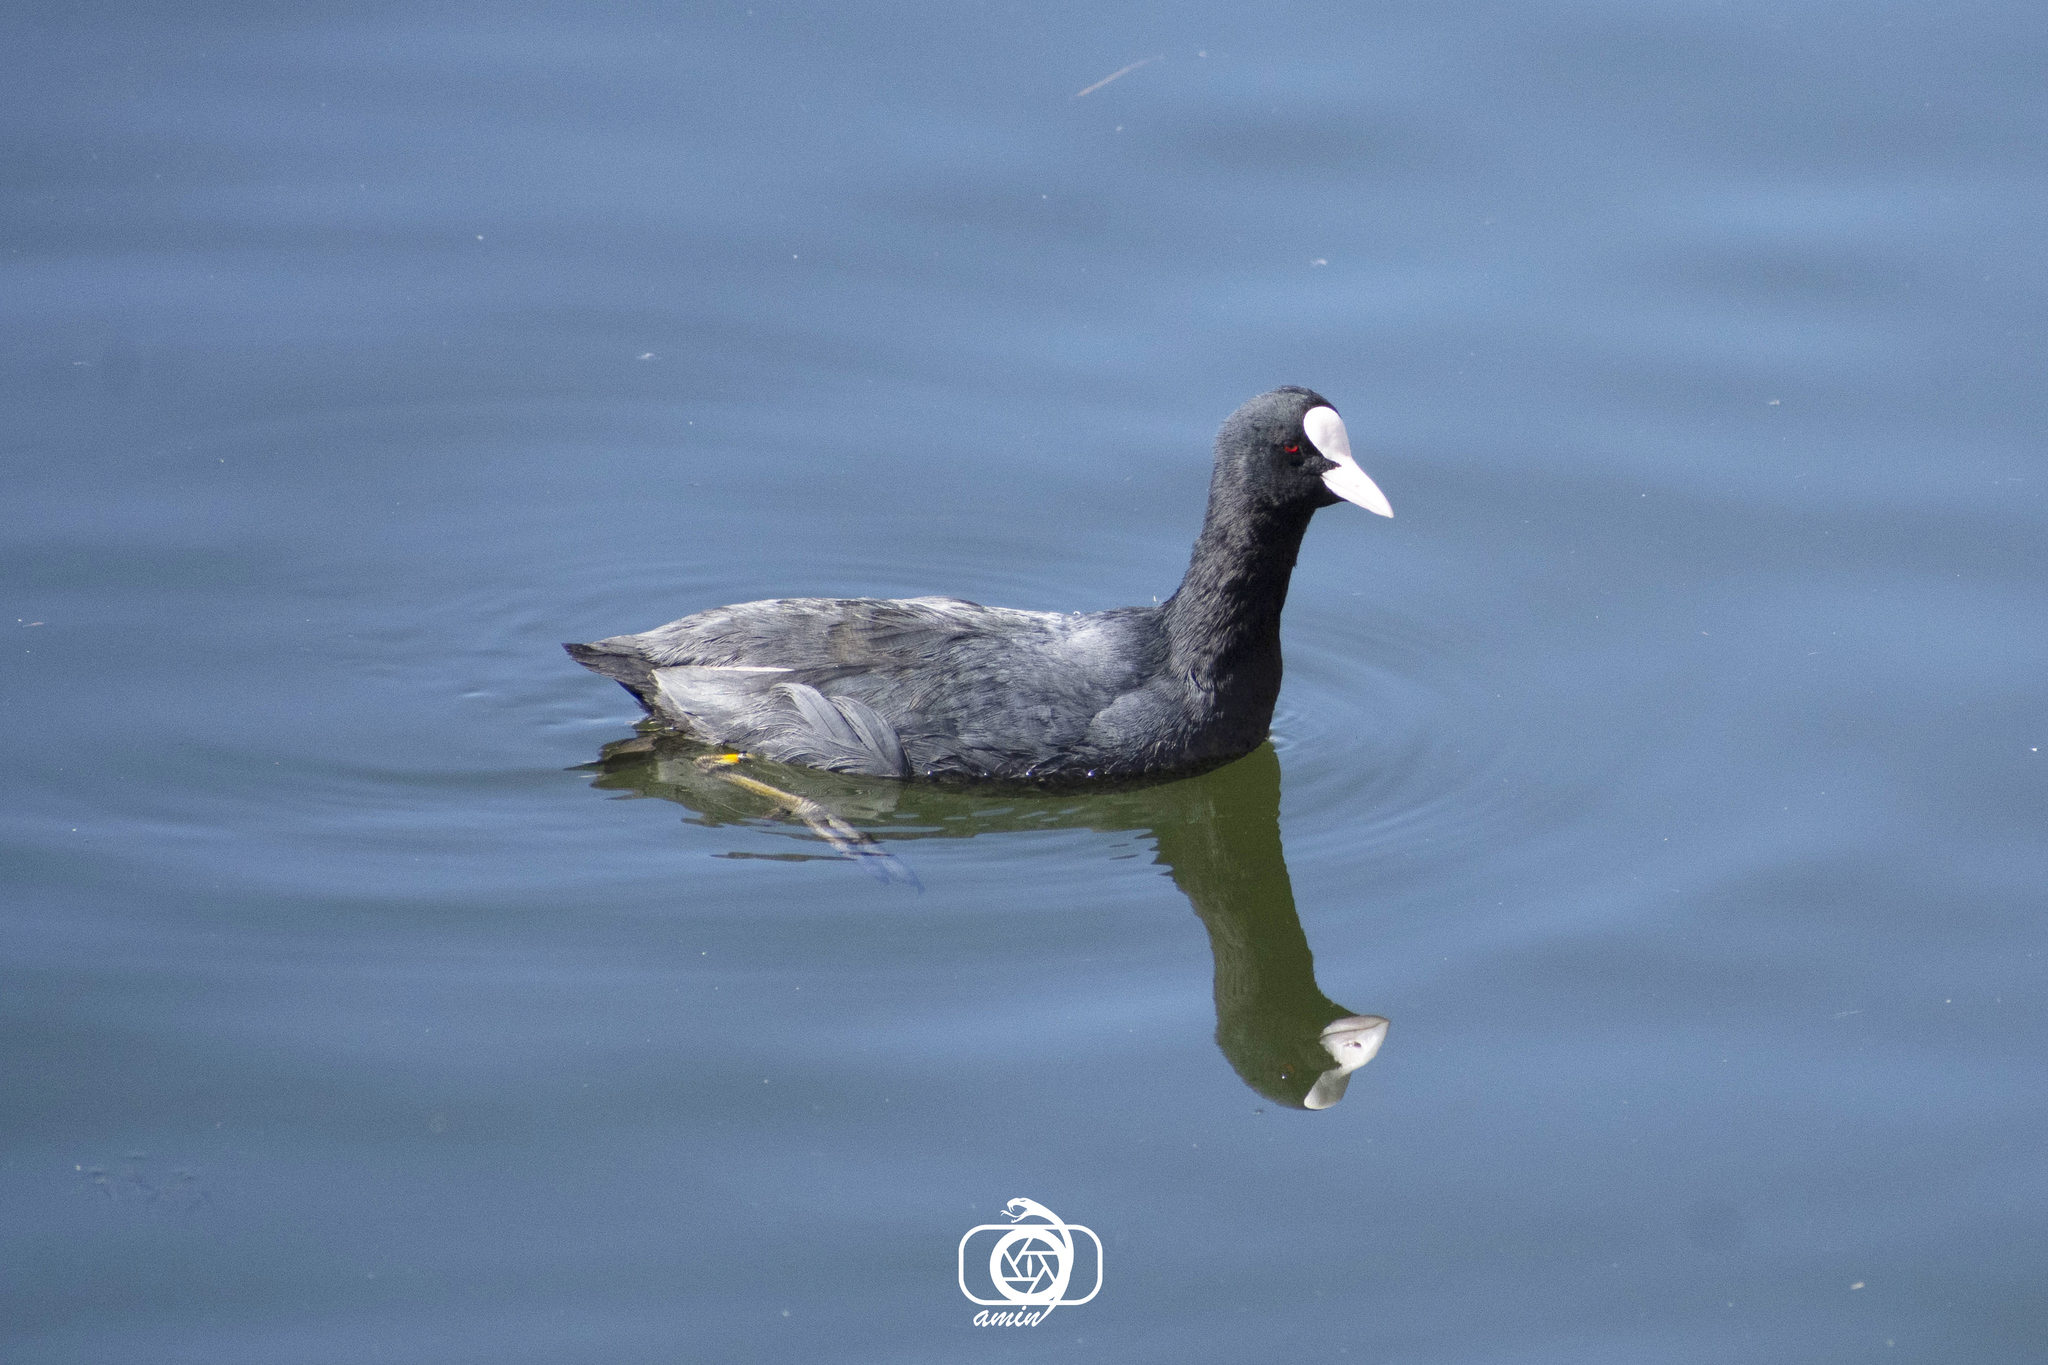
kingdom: Animalia
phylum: Chordata
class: Aves
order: Gruiformes
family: Rallidae
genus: Fulica
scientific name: Fulica atra
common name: Eurasian coot
